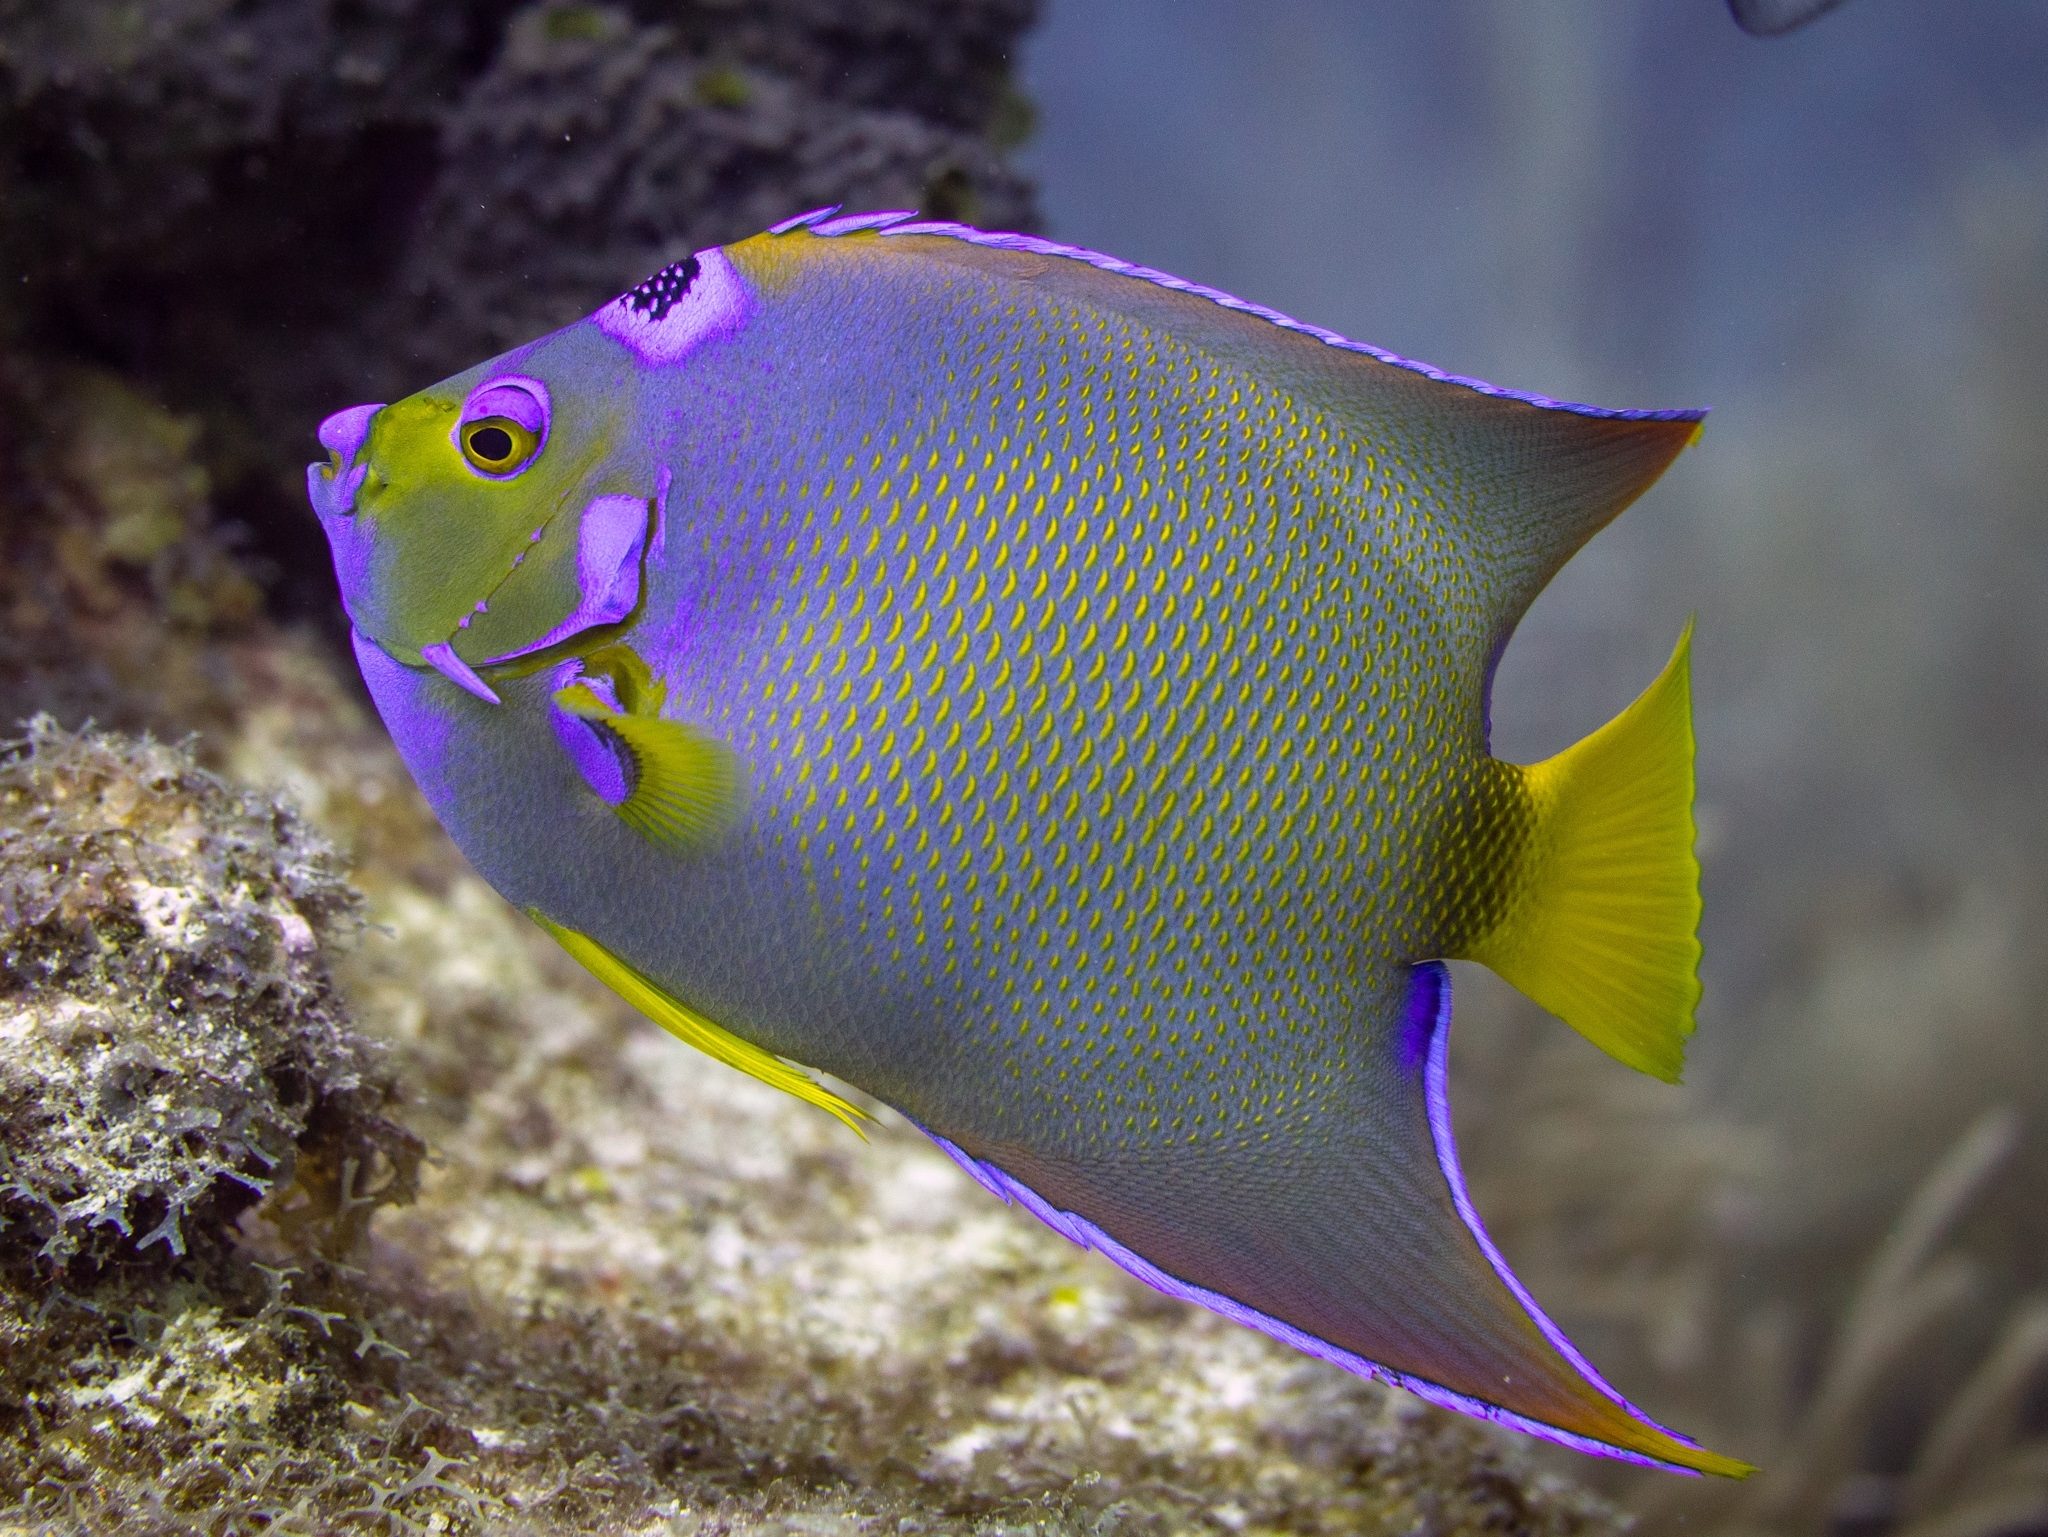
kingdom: Animalia
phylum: Chordata
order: Perciformes
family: Pomacanthidae
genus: Holacanthus
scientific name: Holacanthus ciliaris
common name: Queen angelfish
